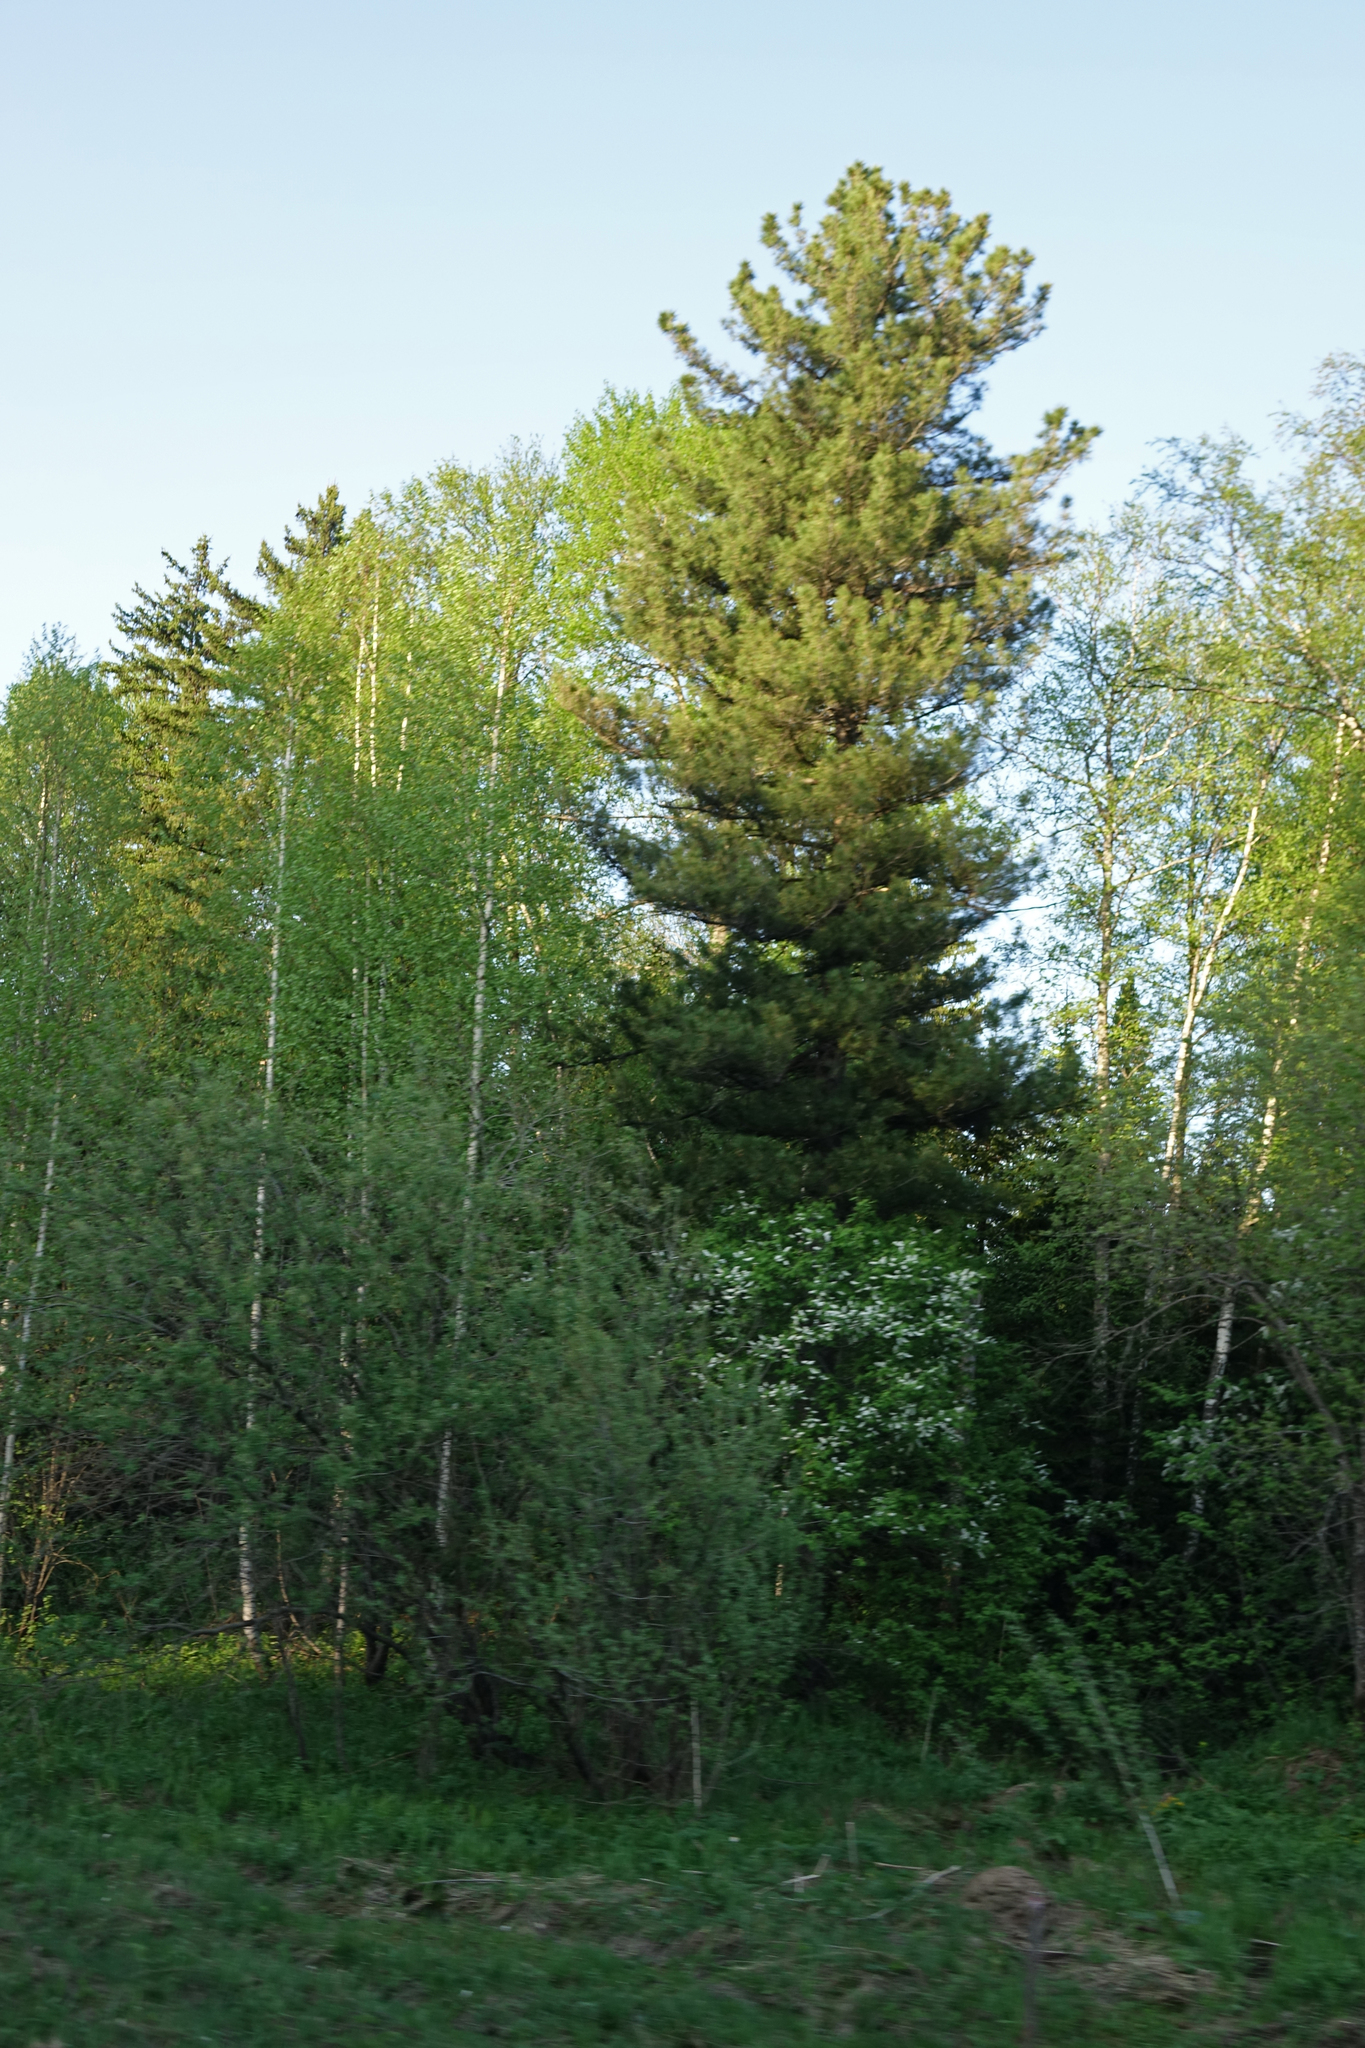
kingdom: Plantae
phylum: Tracheophyta
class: Pinopsida
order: Pinales
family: Pinaceae
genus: Pinus
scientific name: Pinus sibirica
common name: Siberian pine
